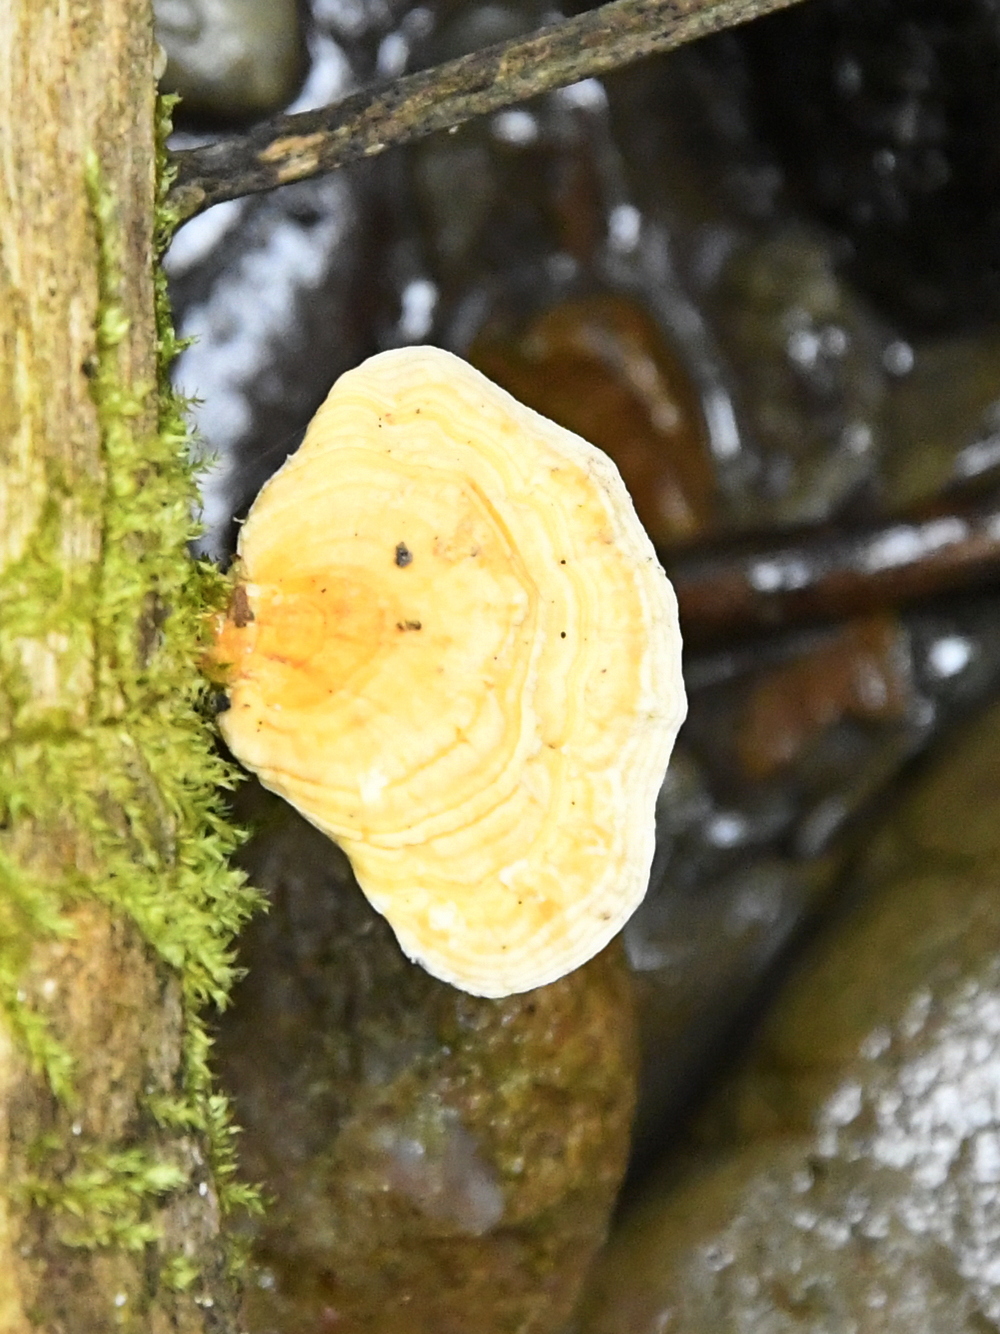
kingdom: Fungi
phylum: Basidiomycota
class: Agaricomycetes
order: Russulales
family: Stereaceae
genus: Stereum
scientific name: Stereum versicolor
